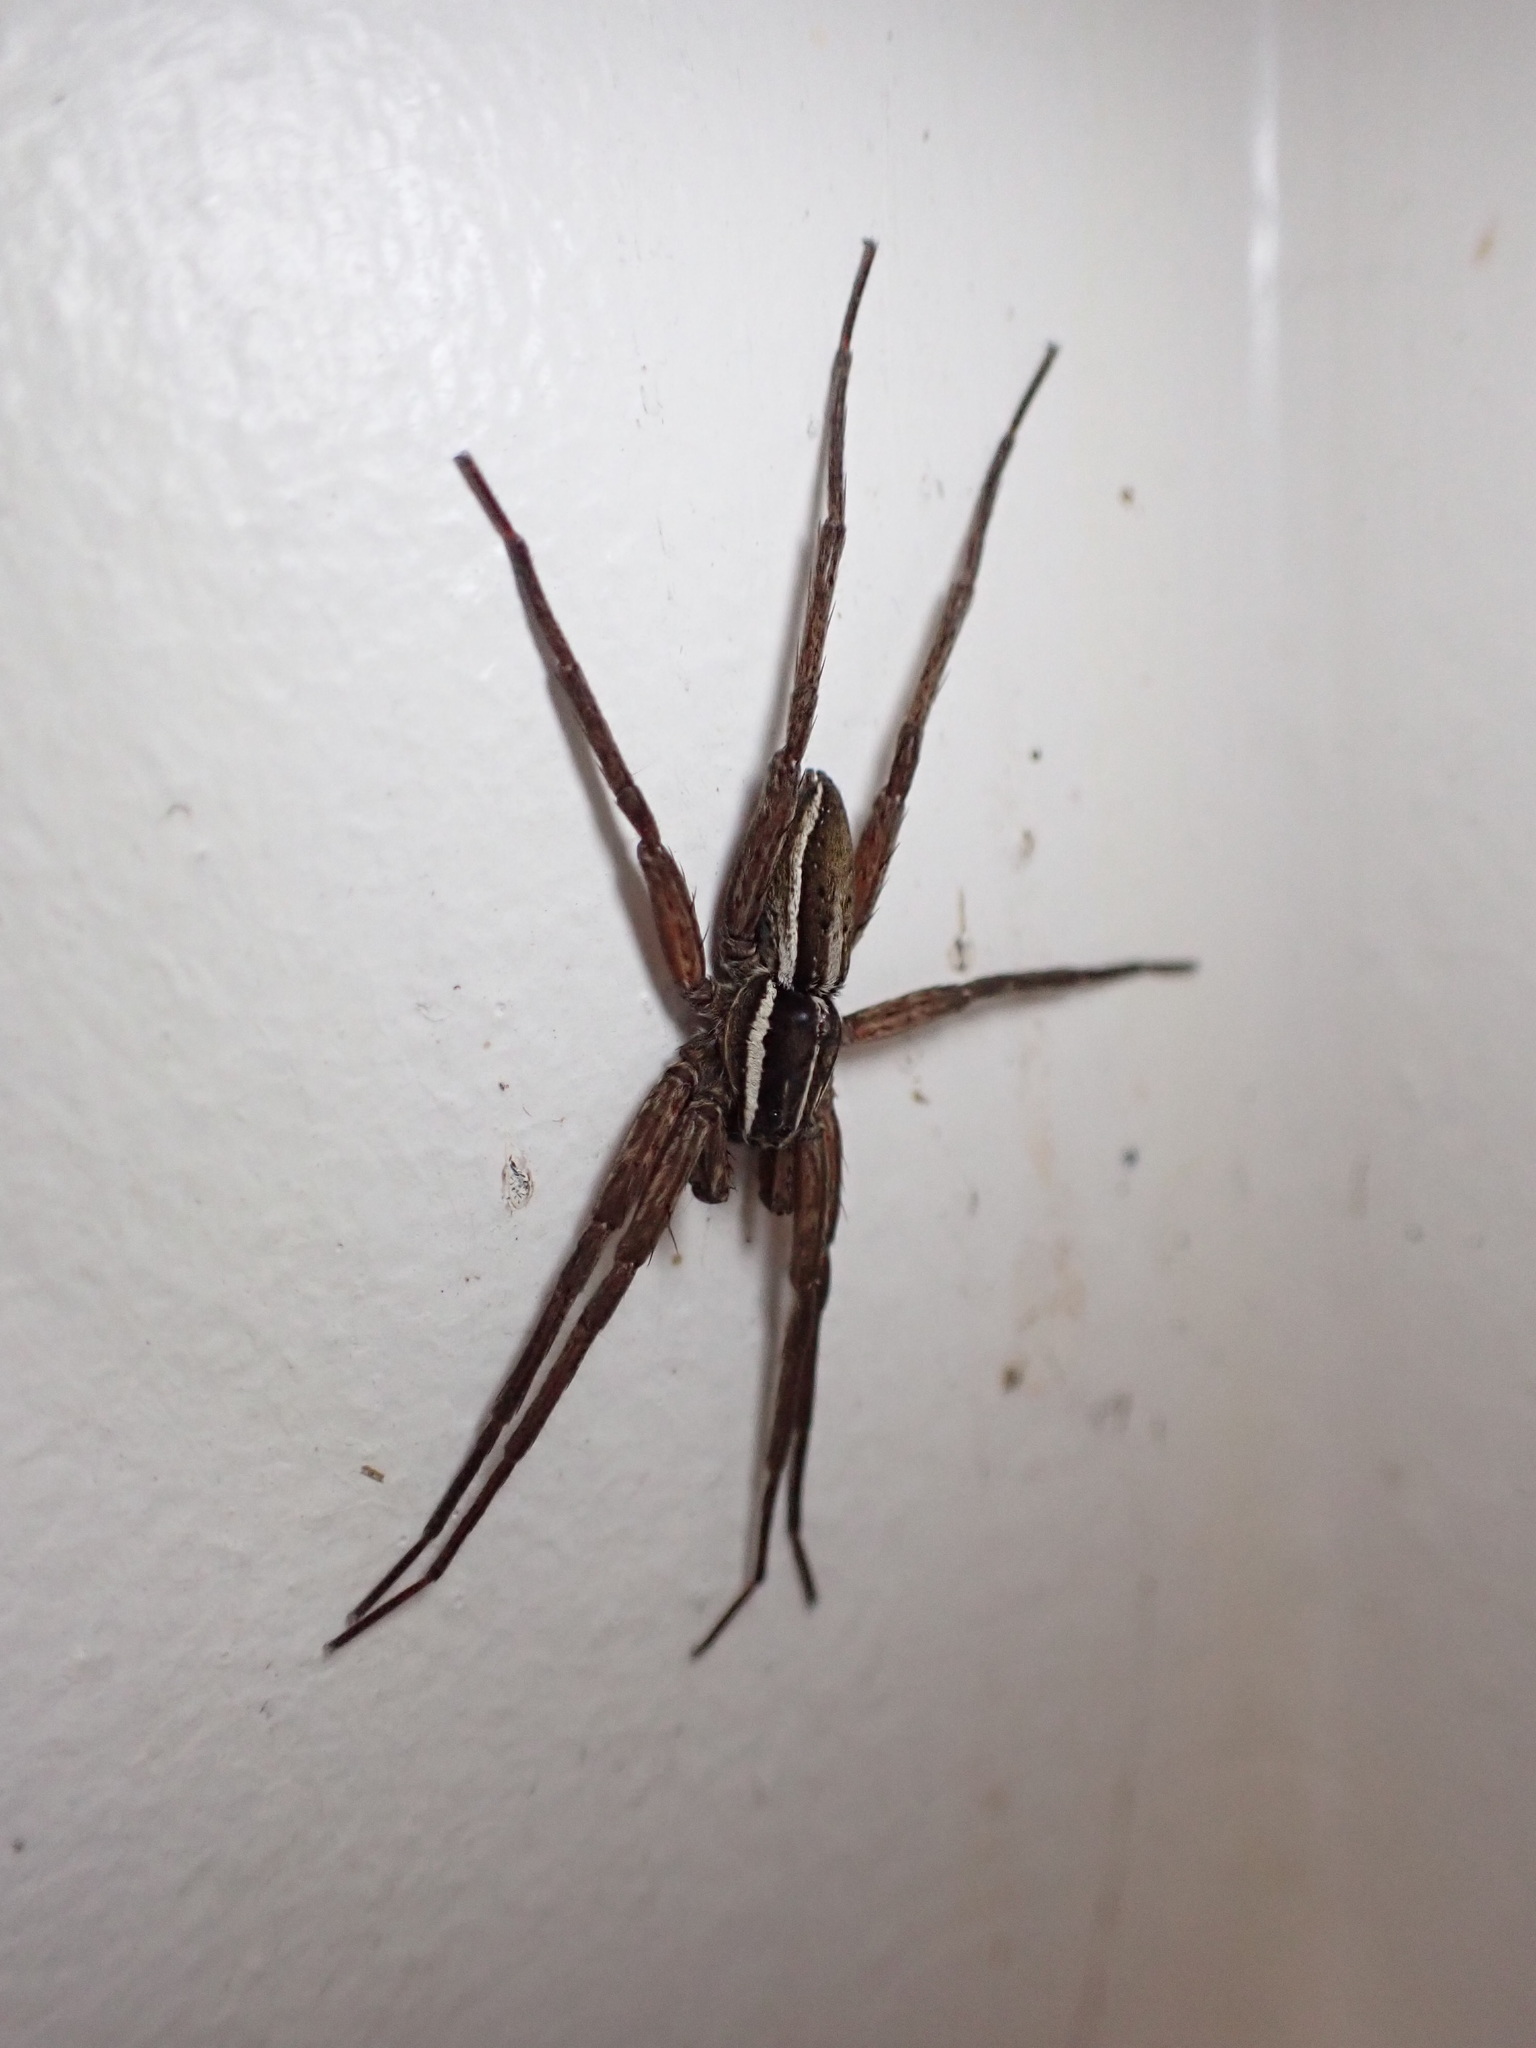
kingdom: Animalia
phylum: Arthropoda
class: Arachnida
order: Araneae
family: Pisauridae
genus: Dolomedes
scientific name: Dolomedes minor
